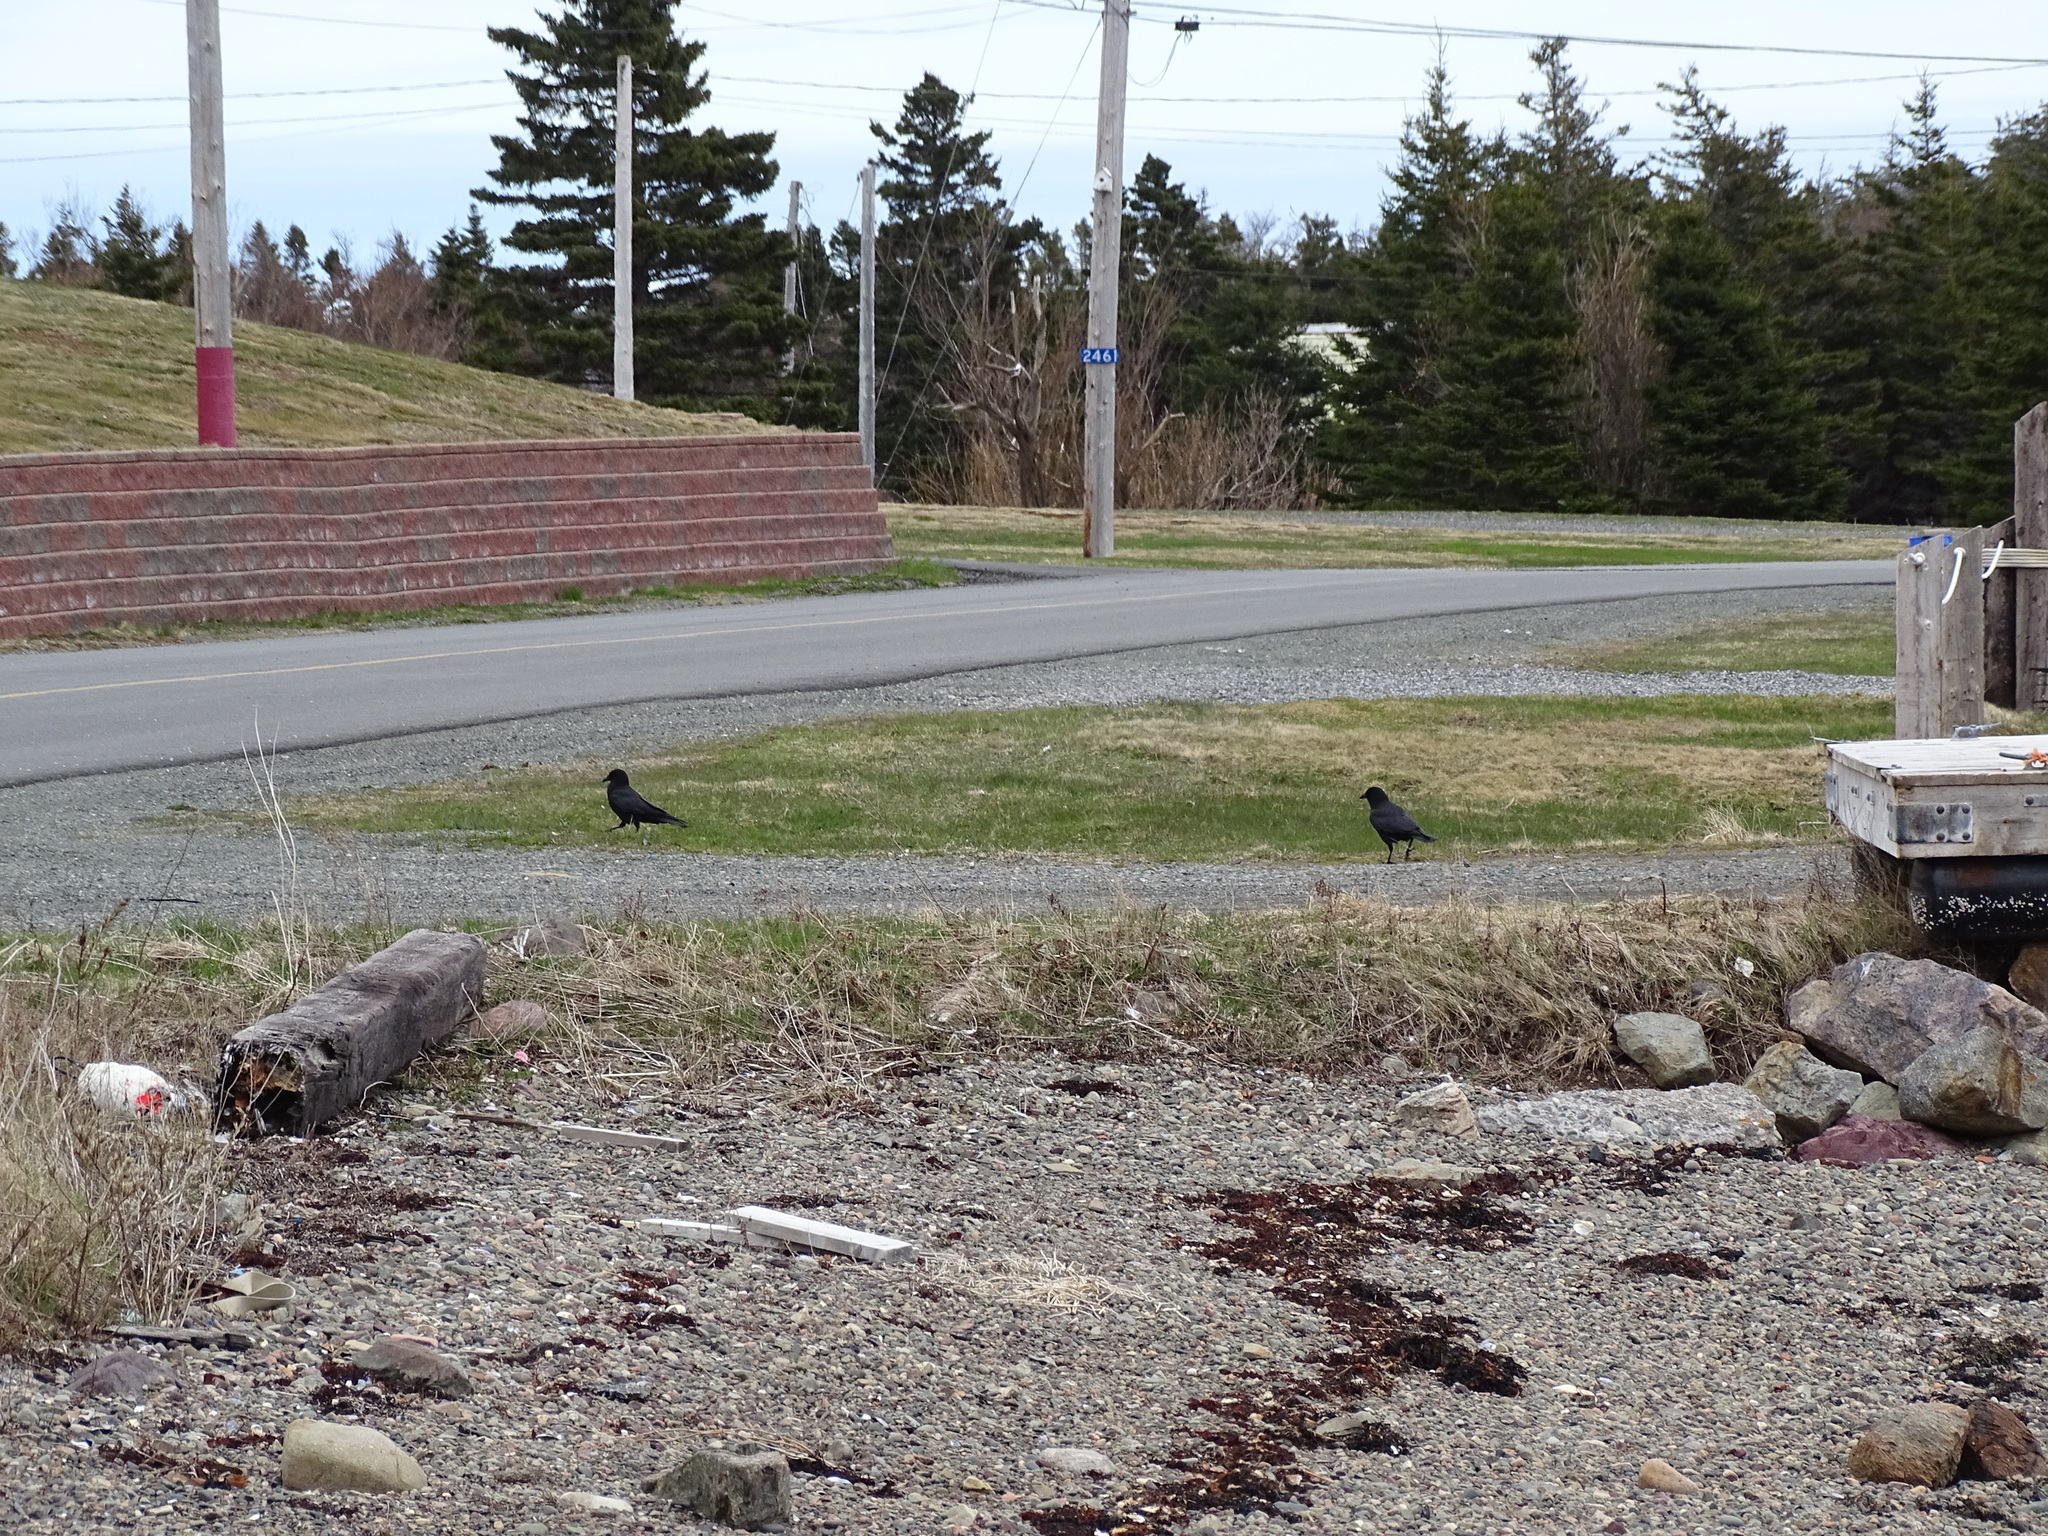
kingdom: Animalia
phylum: Chordata
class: Aves
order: Passeriformes
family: Corvidae
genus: Corvus
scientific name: Corvus brachyrhynchos
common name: American crow
